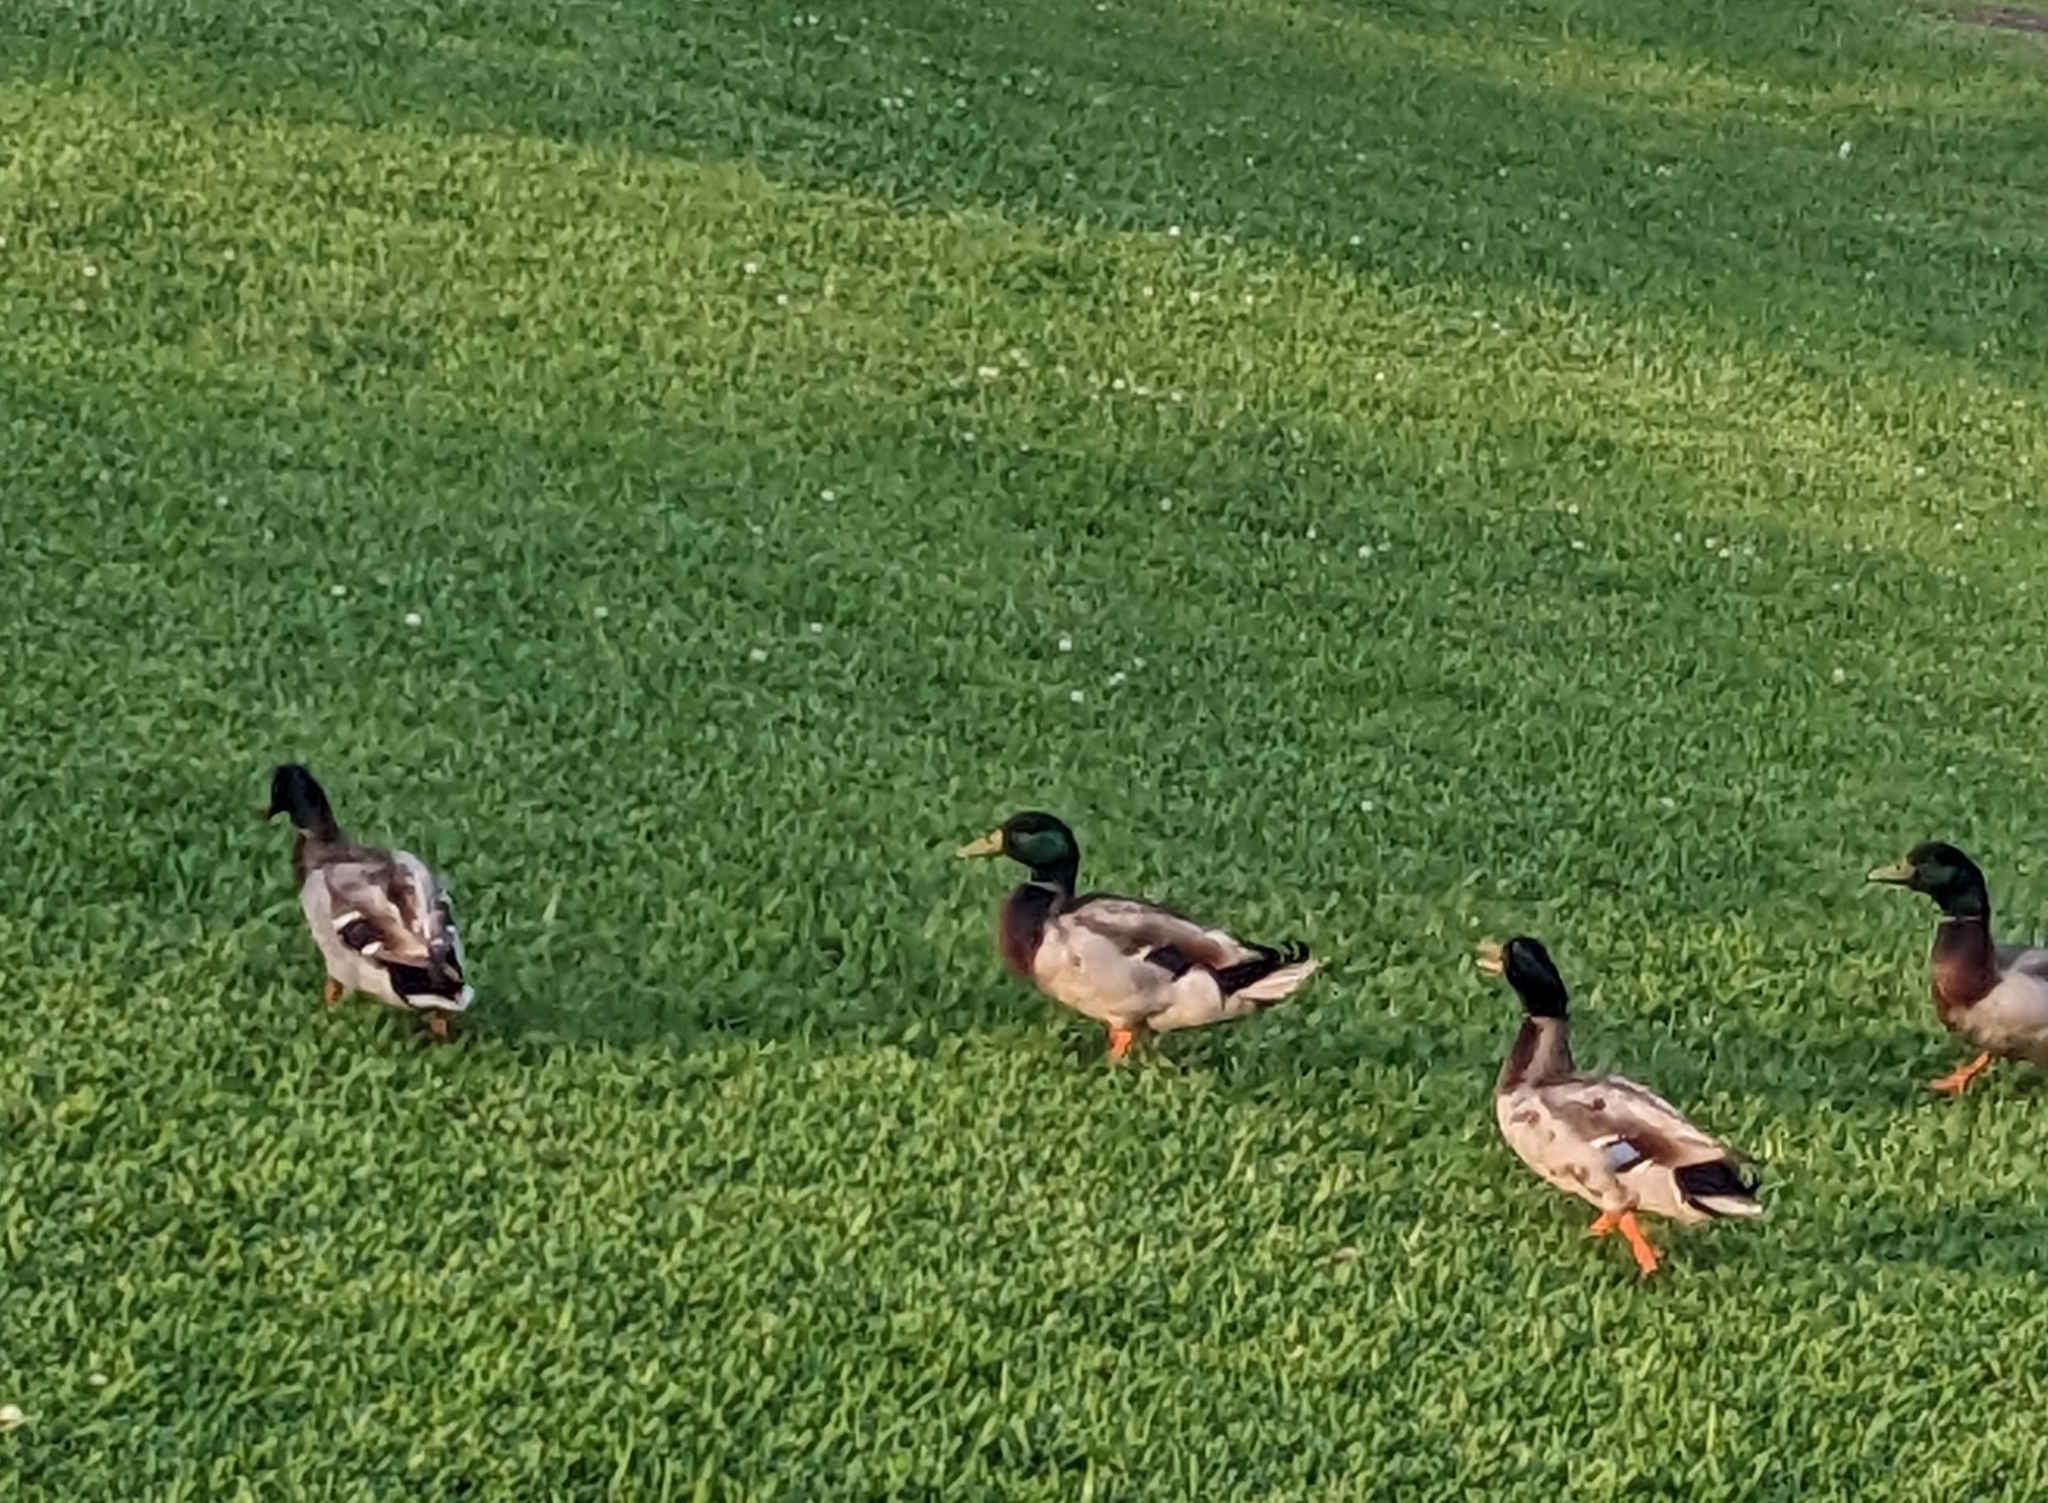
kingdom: Animalia
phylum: Chordata
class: Aves
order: Anseriformes
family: Anatidae
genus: Anas
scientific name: Anas platyrhynchos
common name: Mallard
